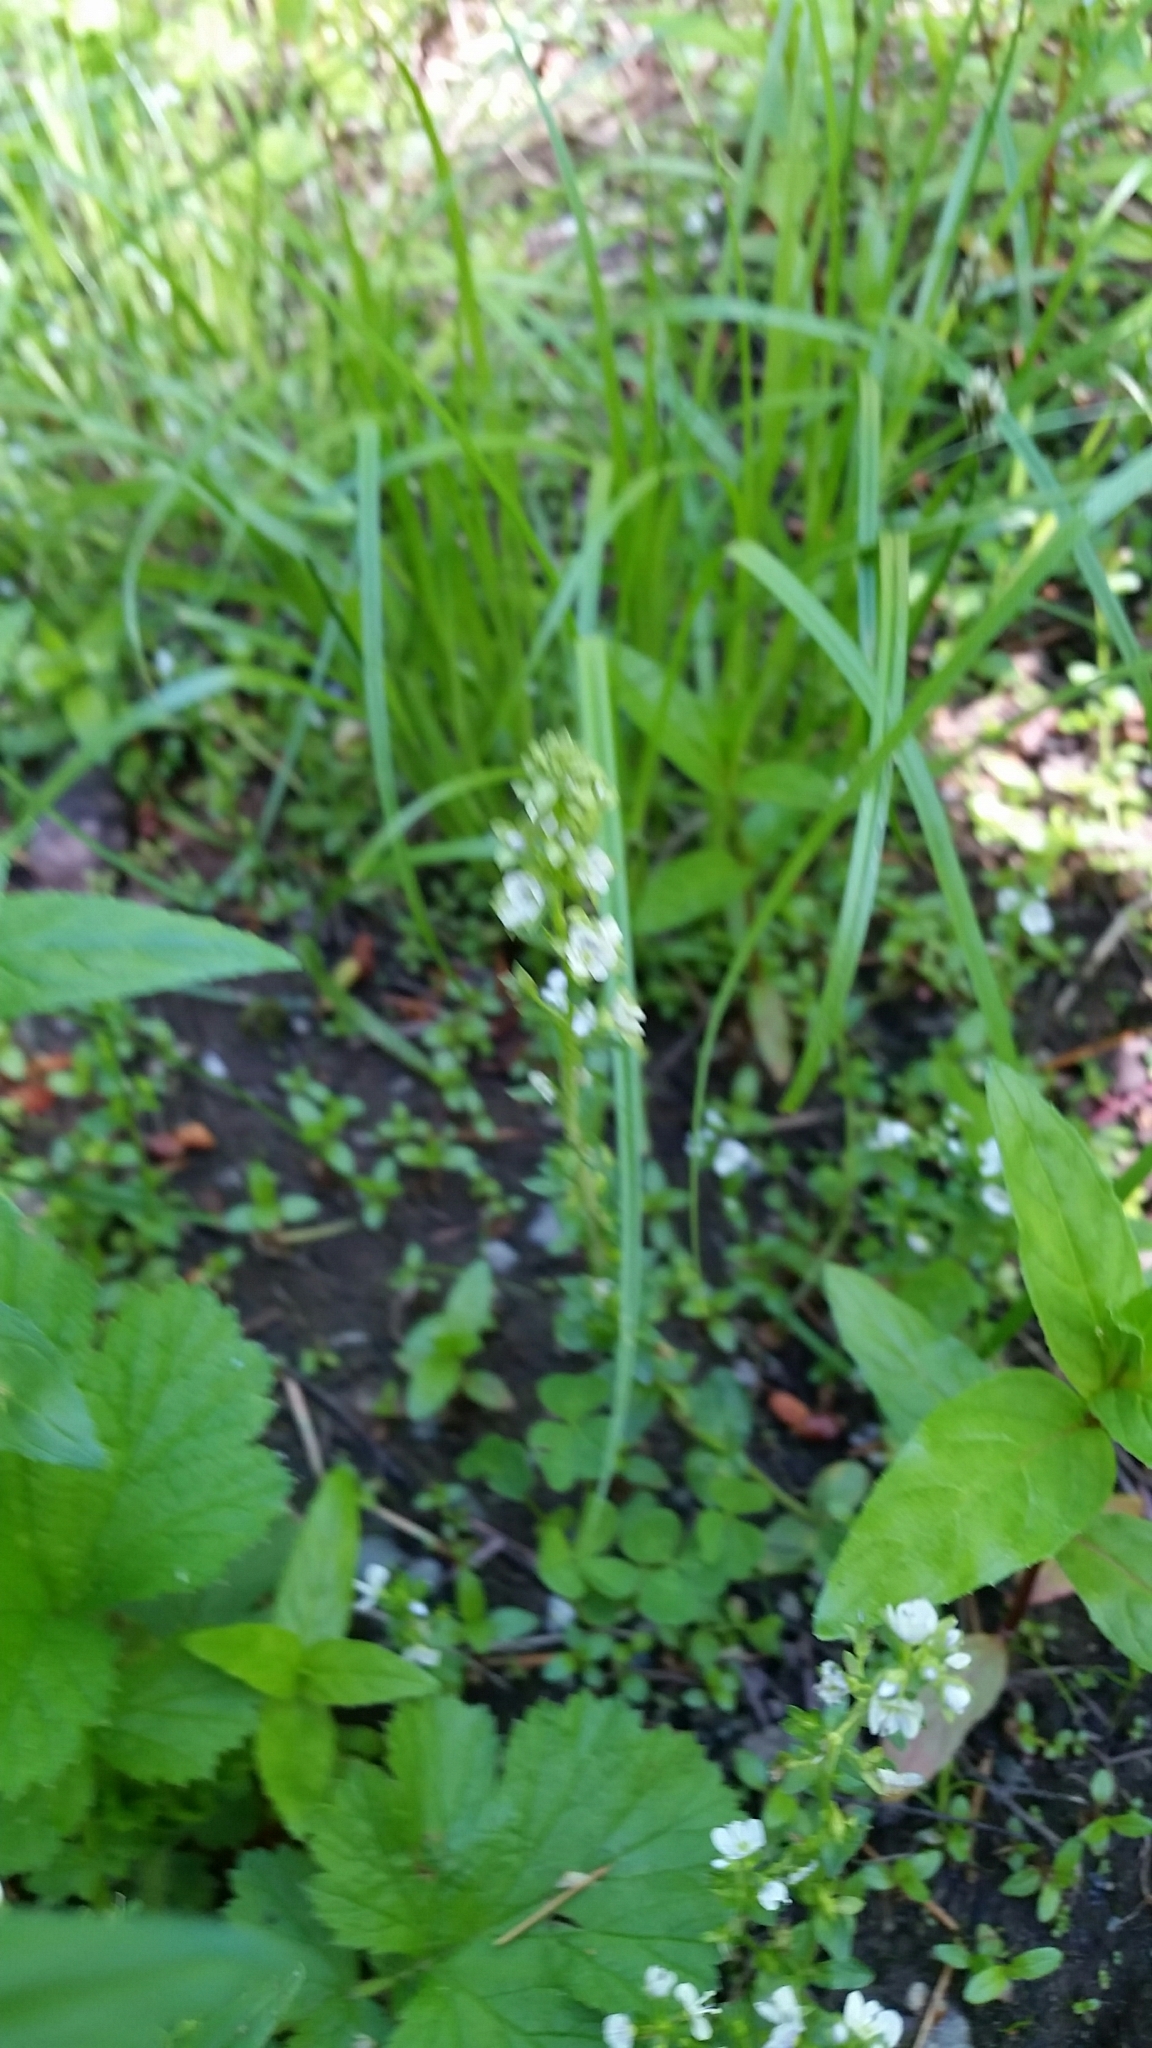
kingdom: Plantae
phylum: Tracheophyta
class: Magnoliopsida
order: Lamiales
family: Plantaginaceae
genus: Veronica
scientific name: Veronica serpyllifolia
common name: Thyme-leaved speedwell
